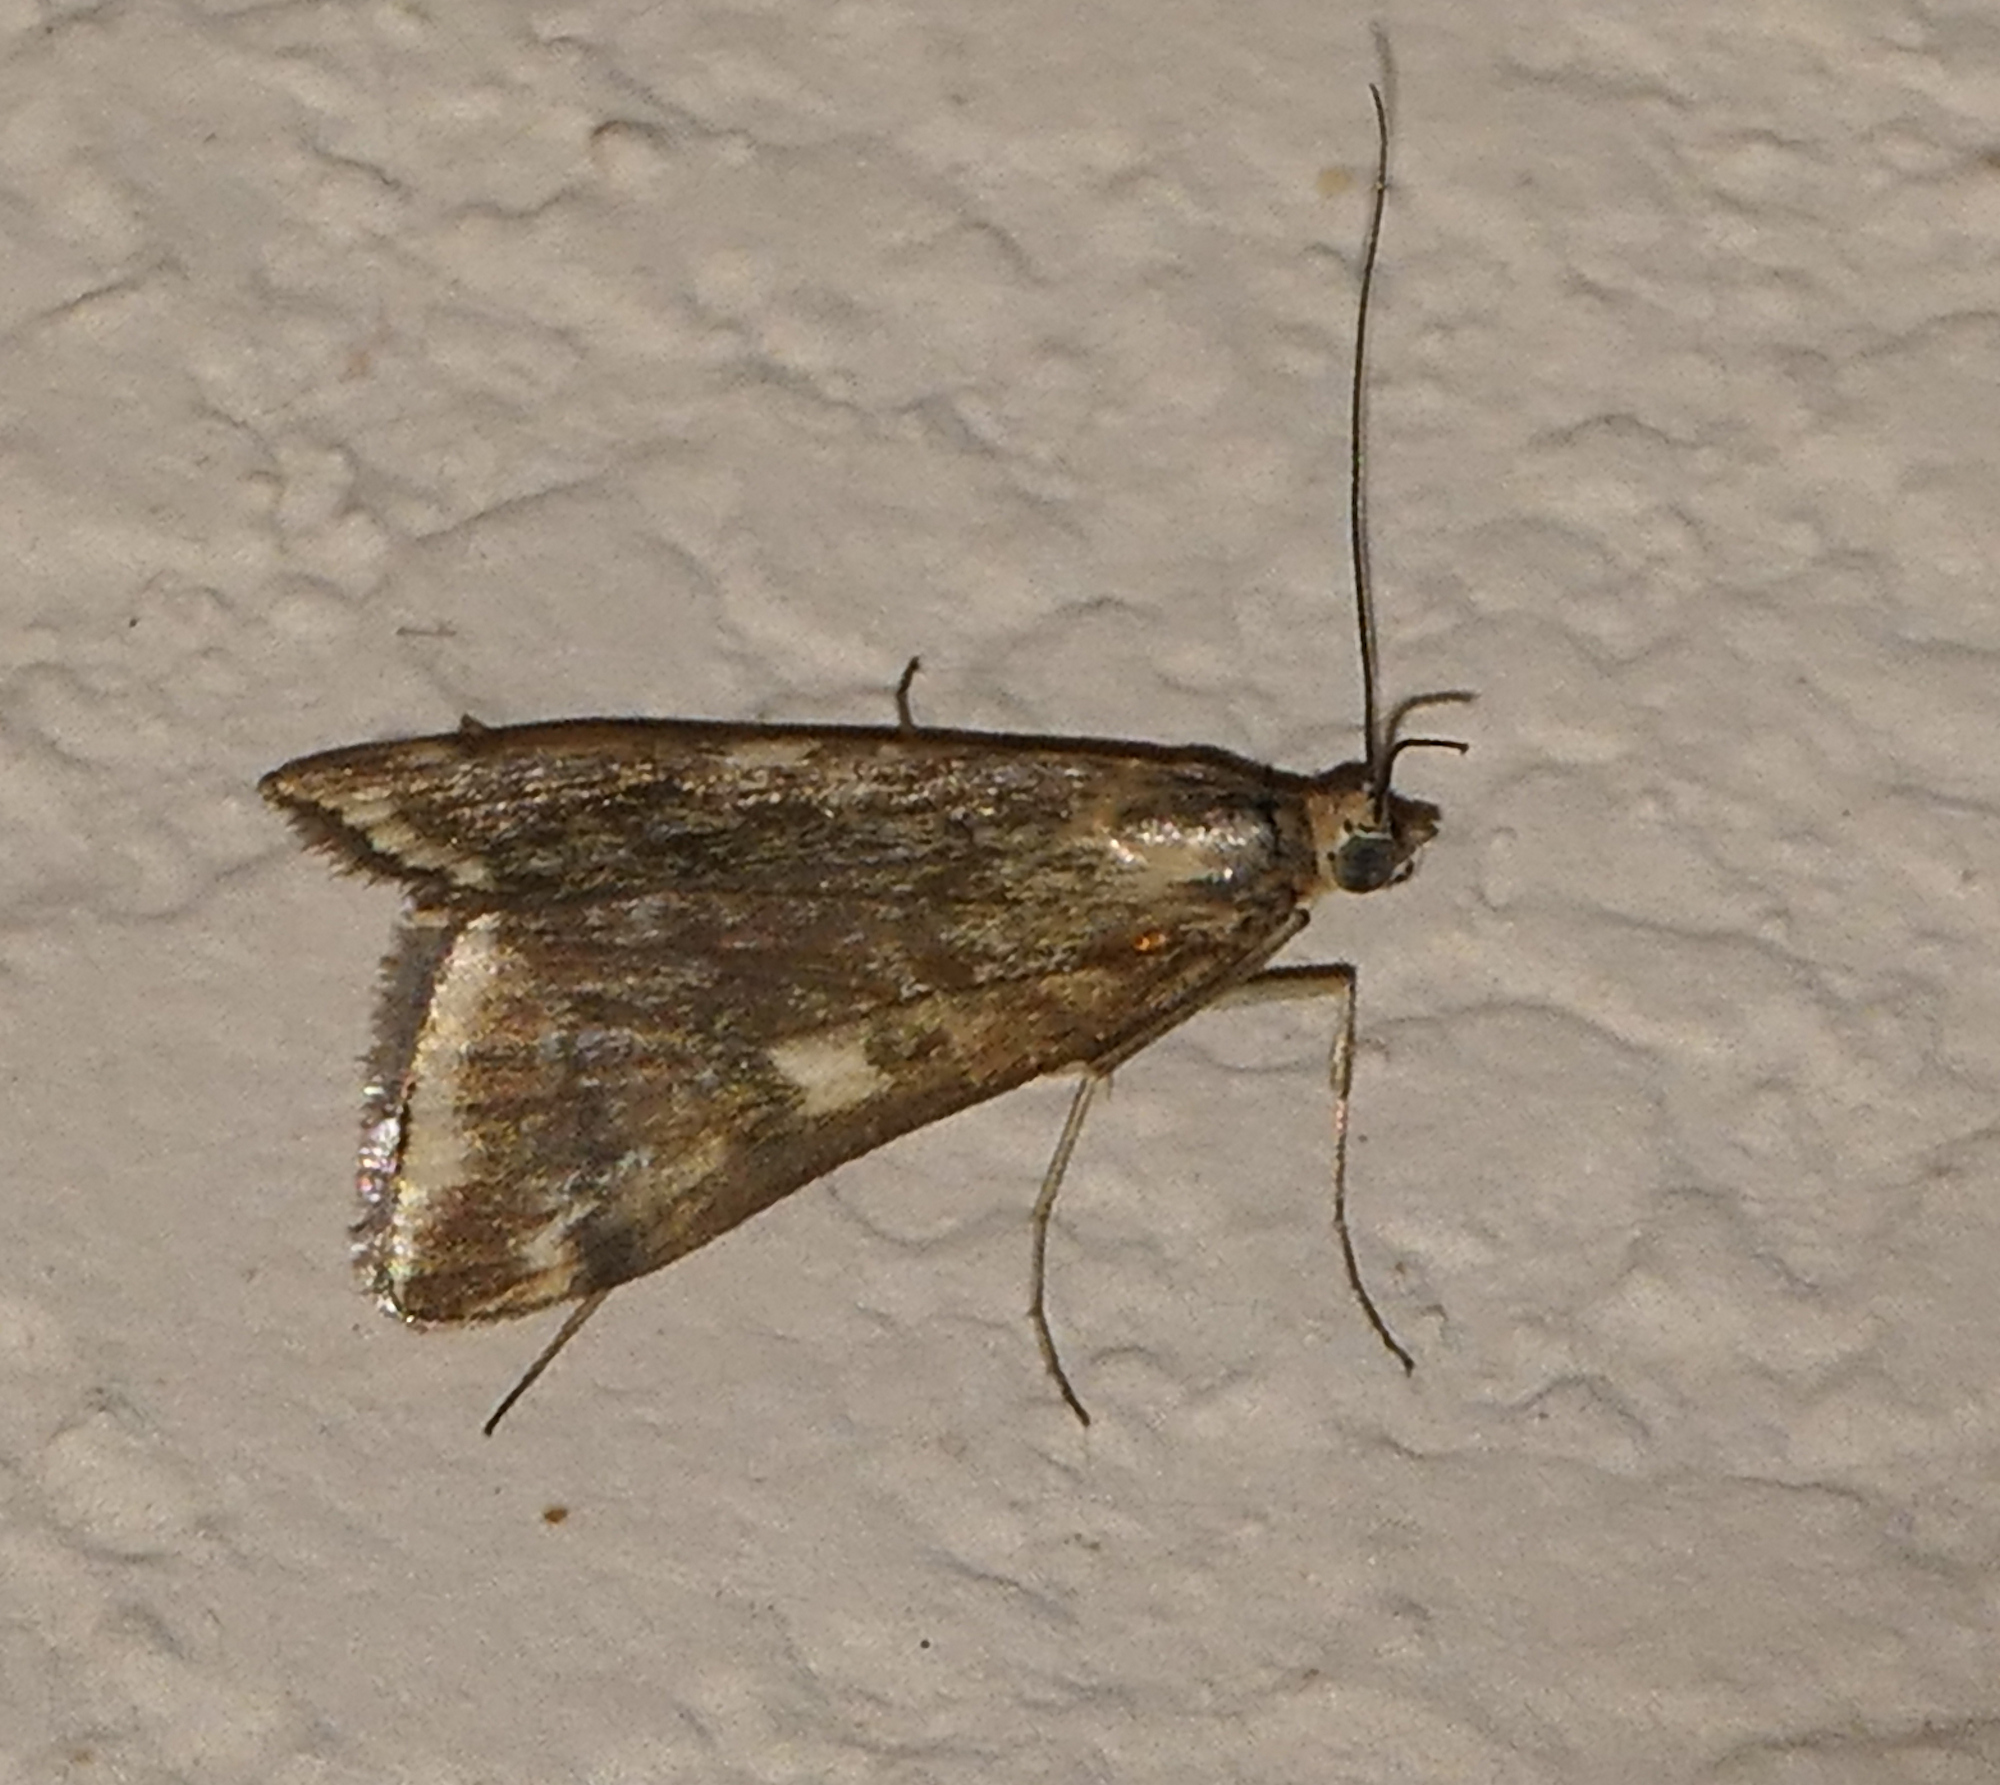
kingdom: Animalia
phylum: Arthropoda
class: Insecta
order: Lepidoptera
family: Crambidae
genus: Loxostege
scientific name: Loxostege
